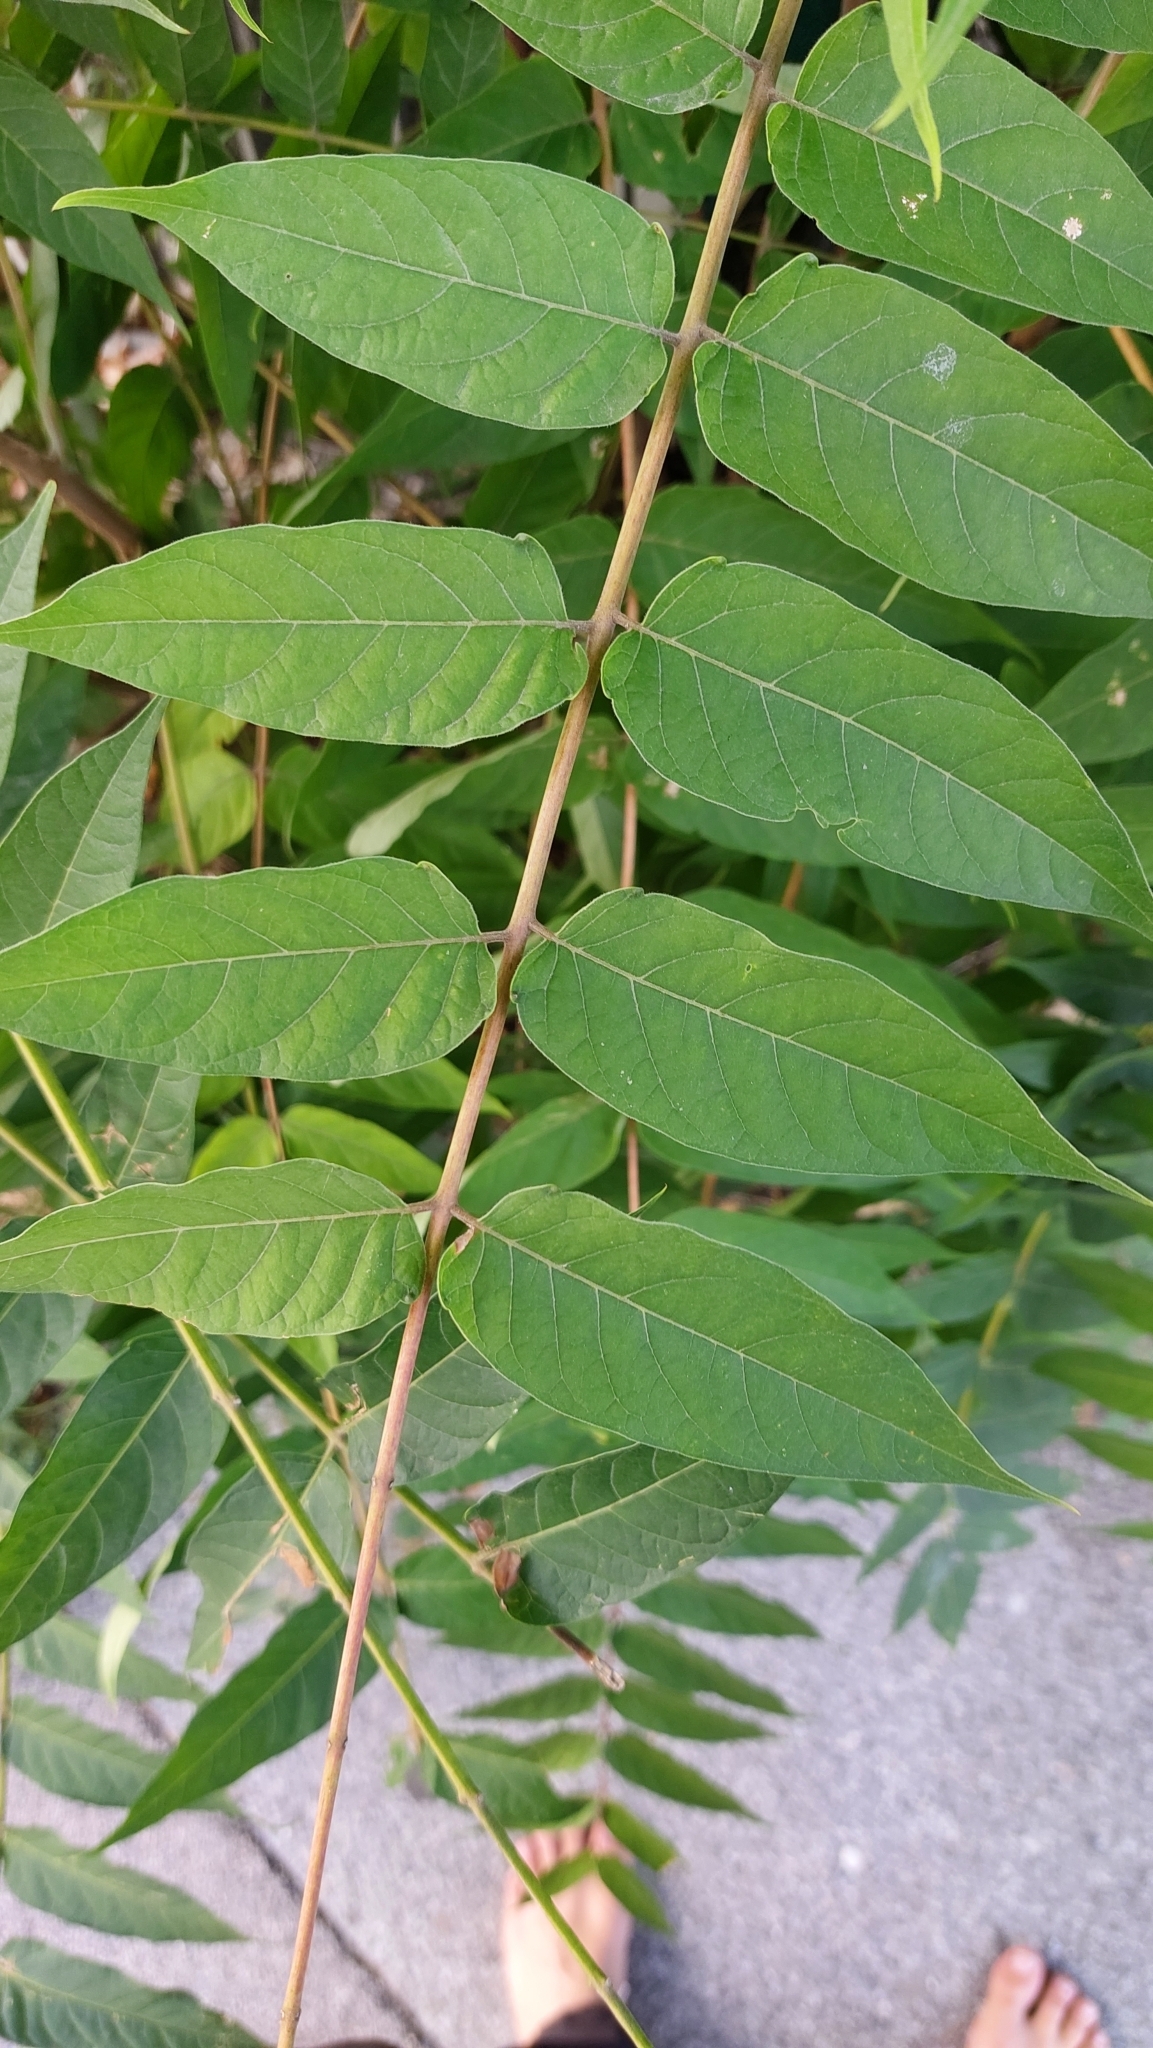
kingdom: Plantae
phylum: Tracheophyta
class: Magnoliopsida
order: Sapindales
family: Simaroubaceae
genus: Ailanthus
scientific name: Ailanthus altissima
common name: Tree-of-heaven
